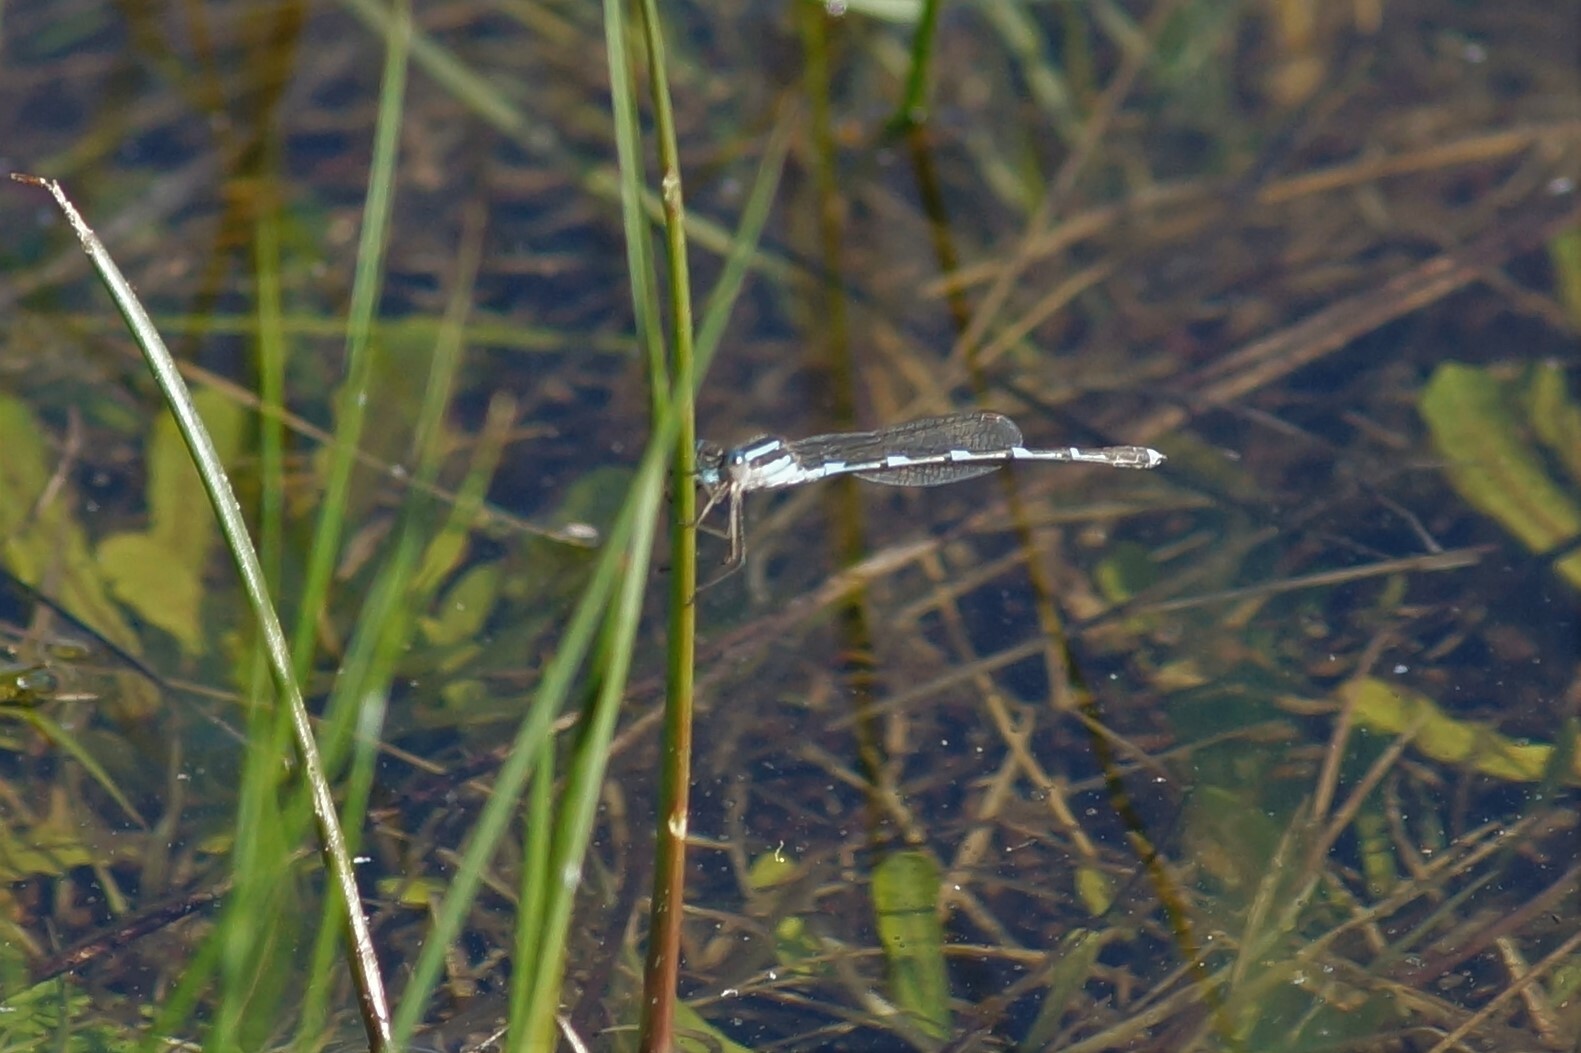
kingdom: Animalia
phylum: Arthropoda
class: Insecta
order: Odonata
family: Lestidae
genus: Austrolestes
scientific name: Austrolestes leda
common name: Wandering ringtail
